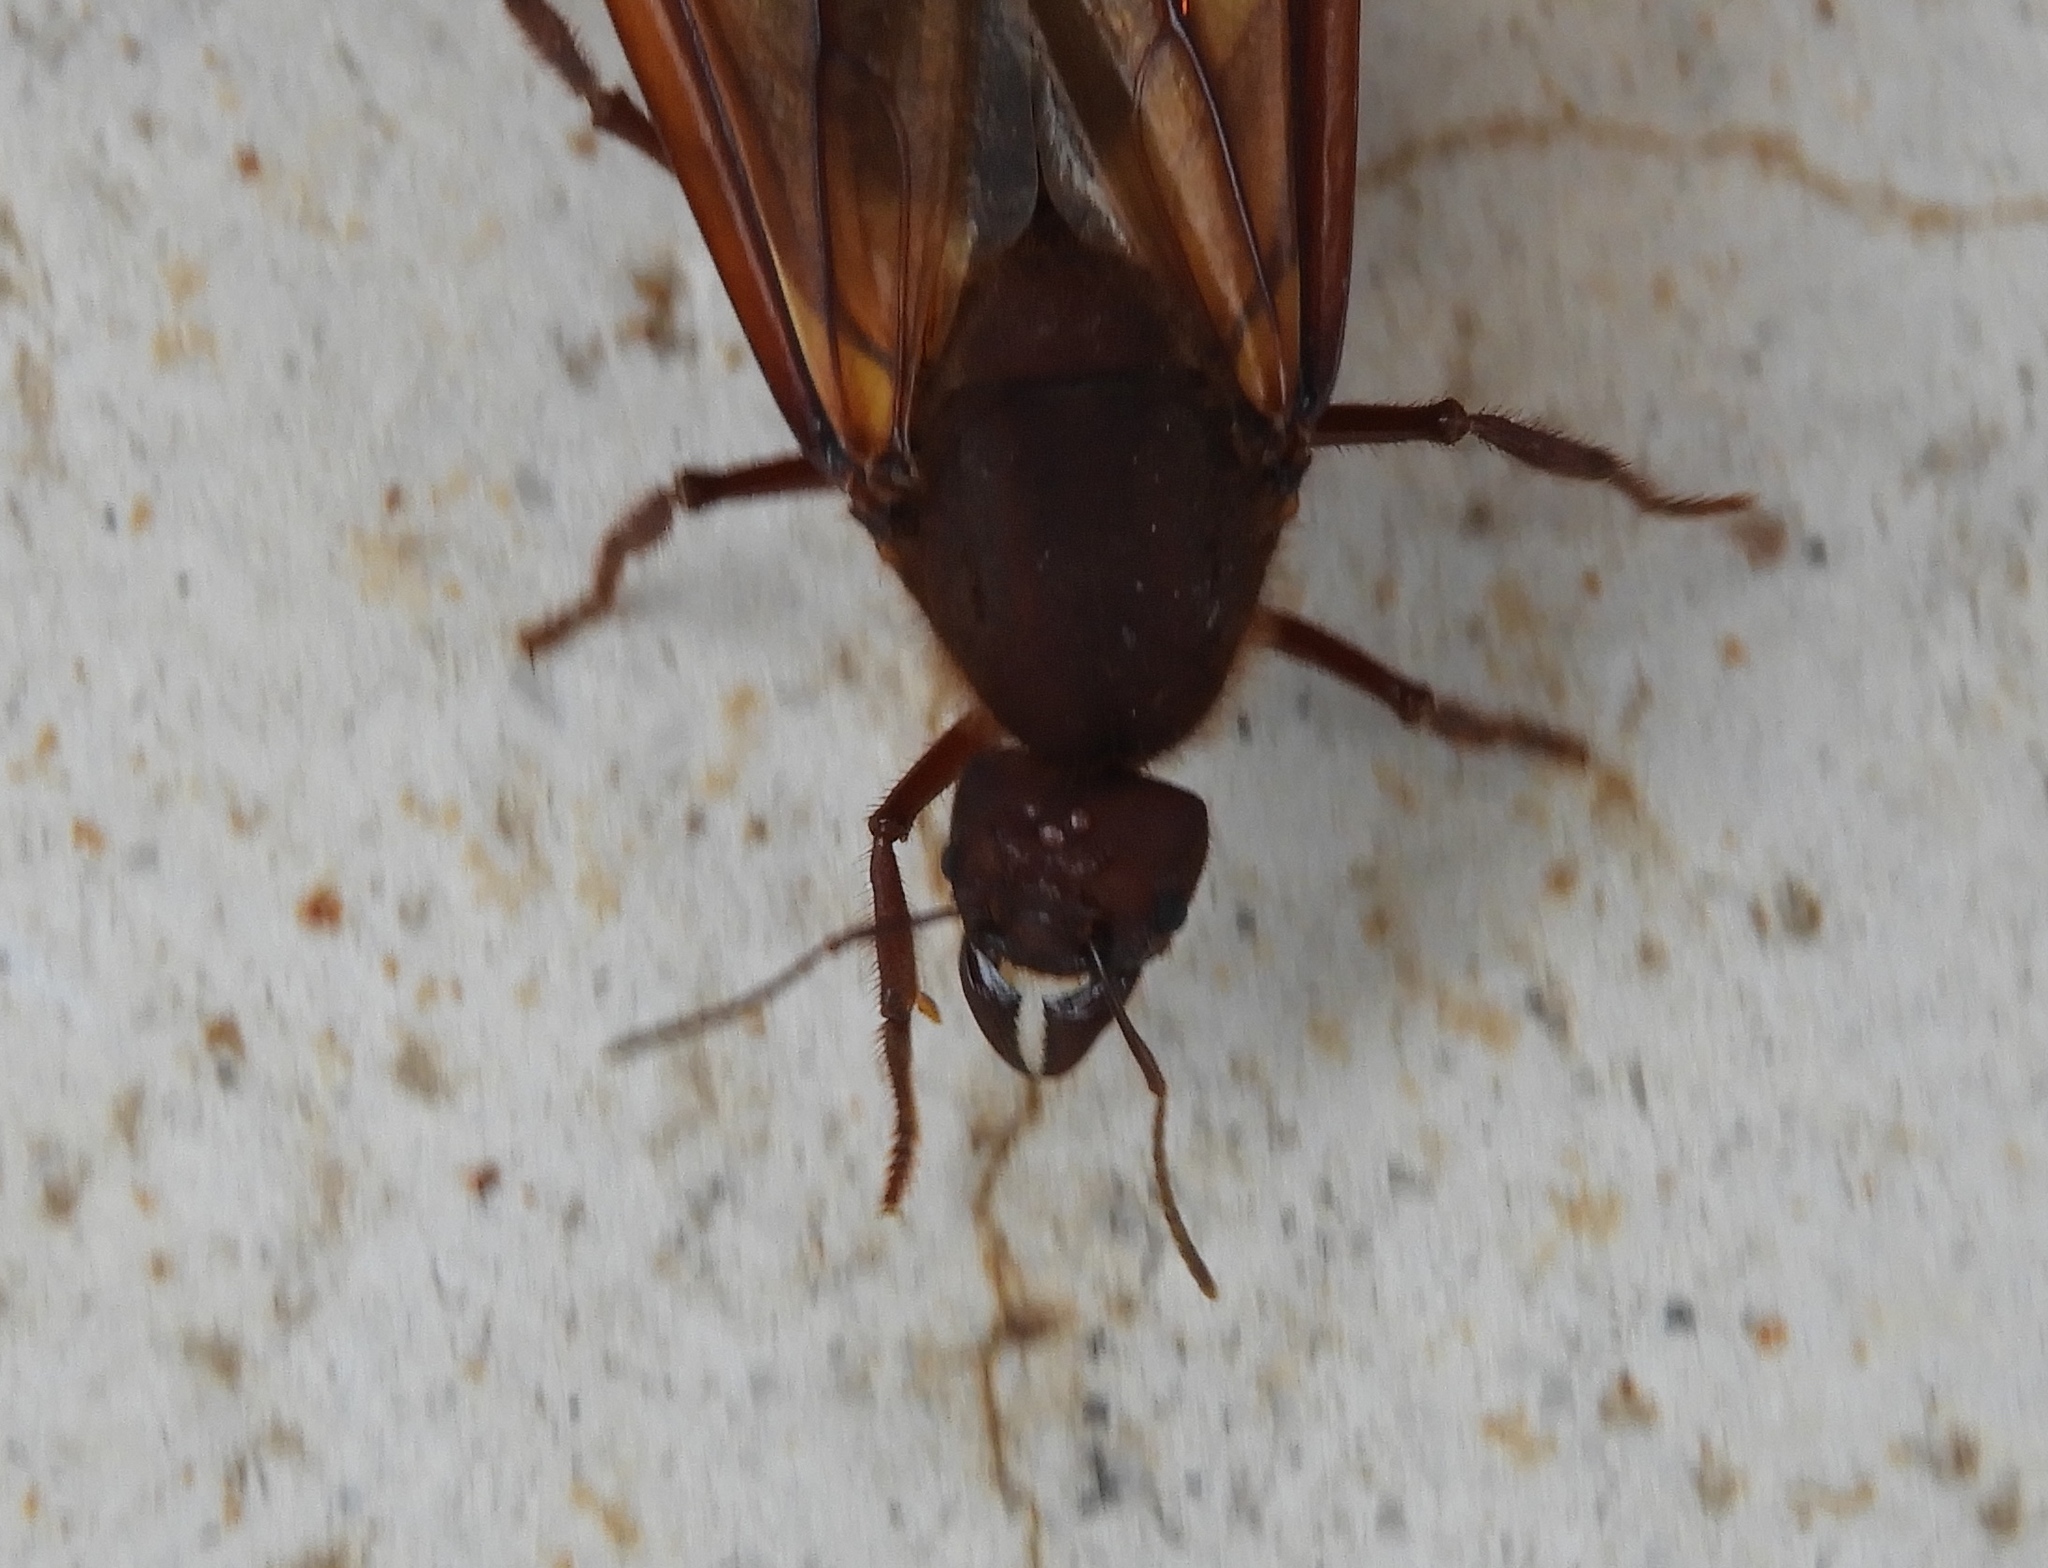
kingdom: Animalia
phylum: Arthropoda
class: Insecta
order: Hymenoptera
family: Formicidae
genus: Atta
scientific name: Atta mexicana
